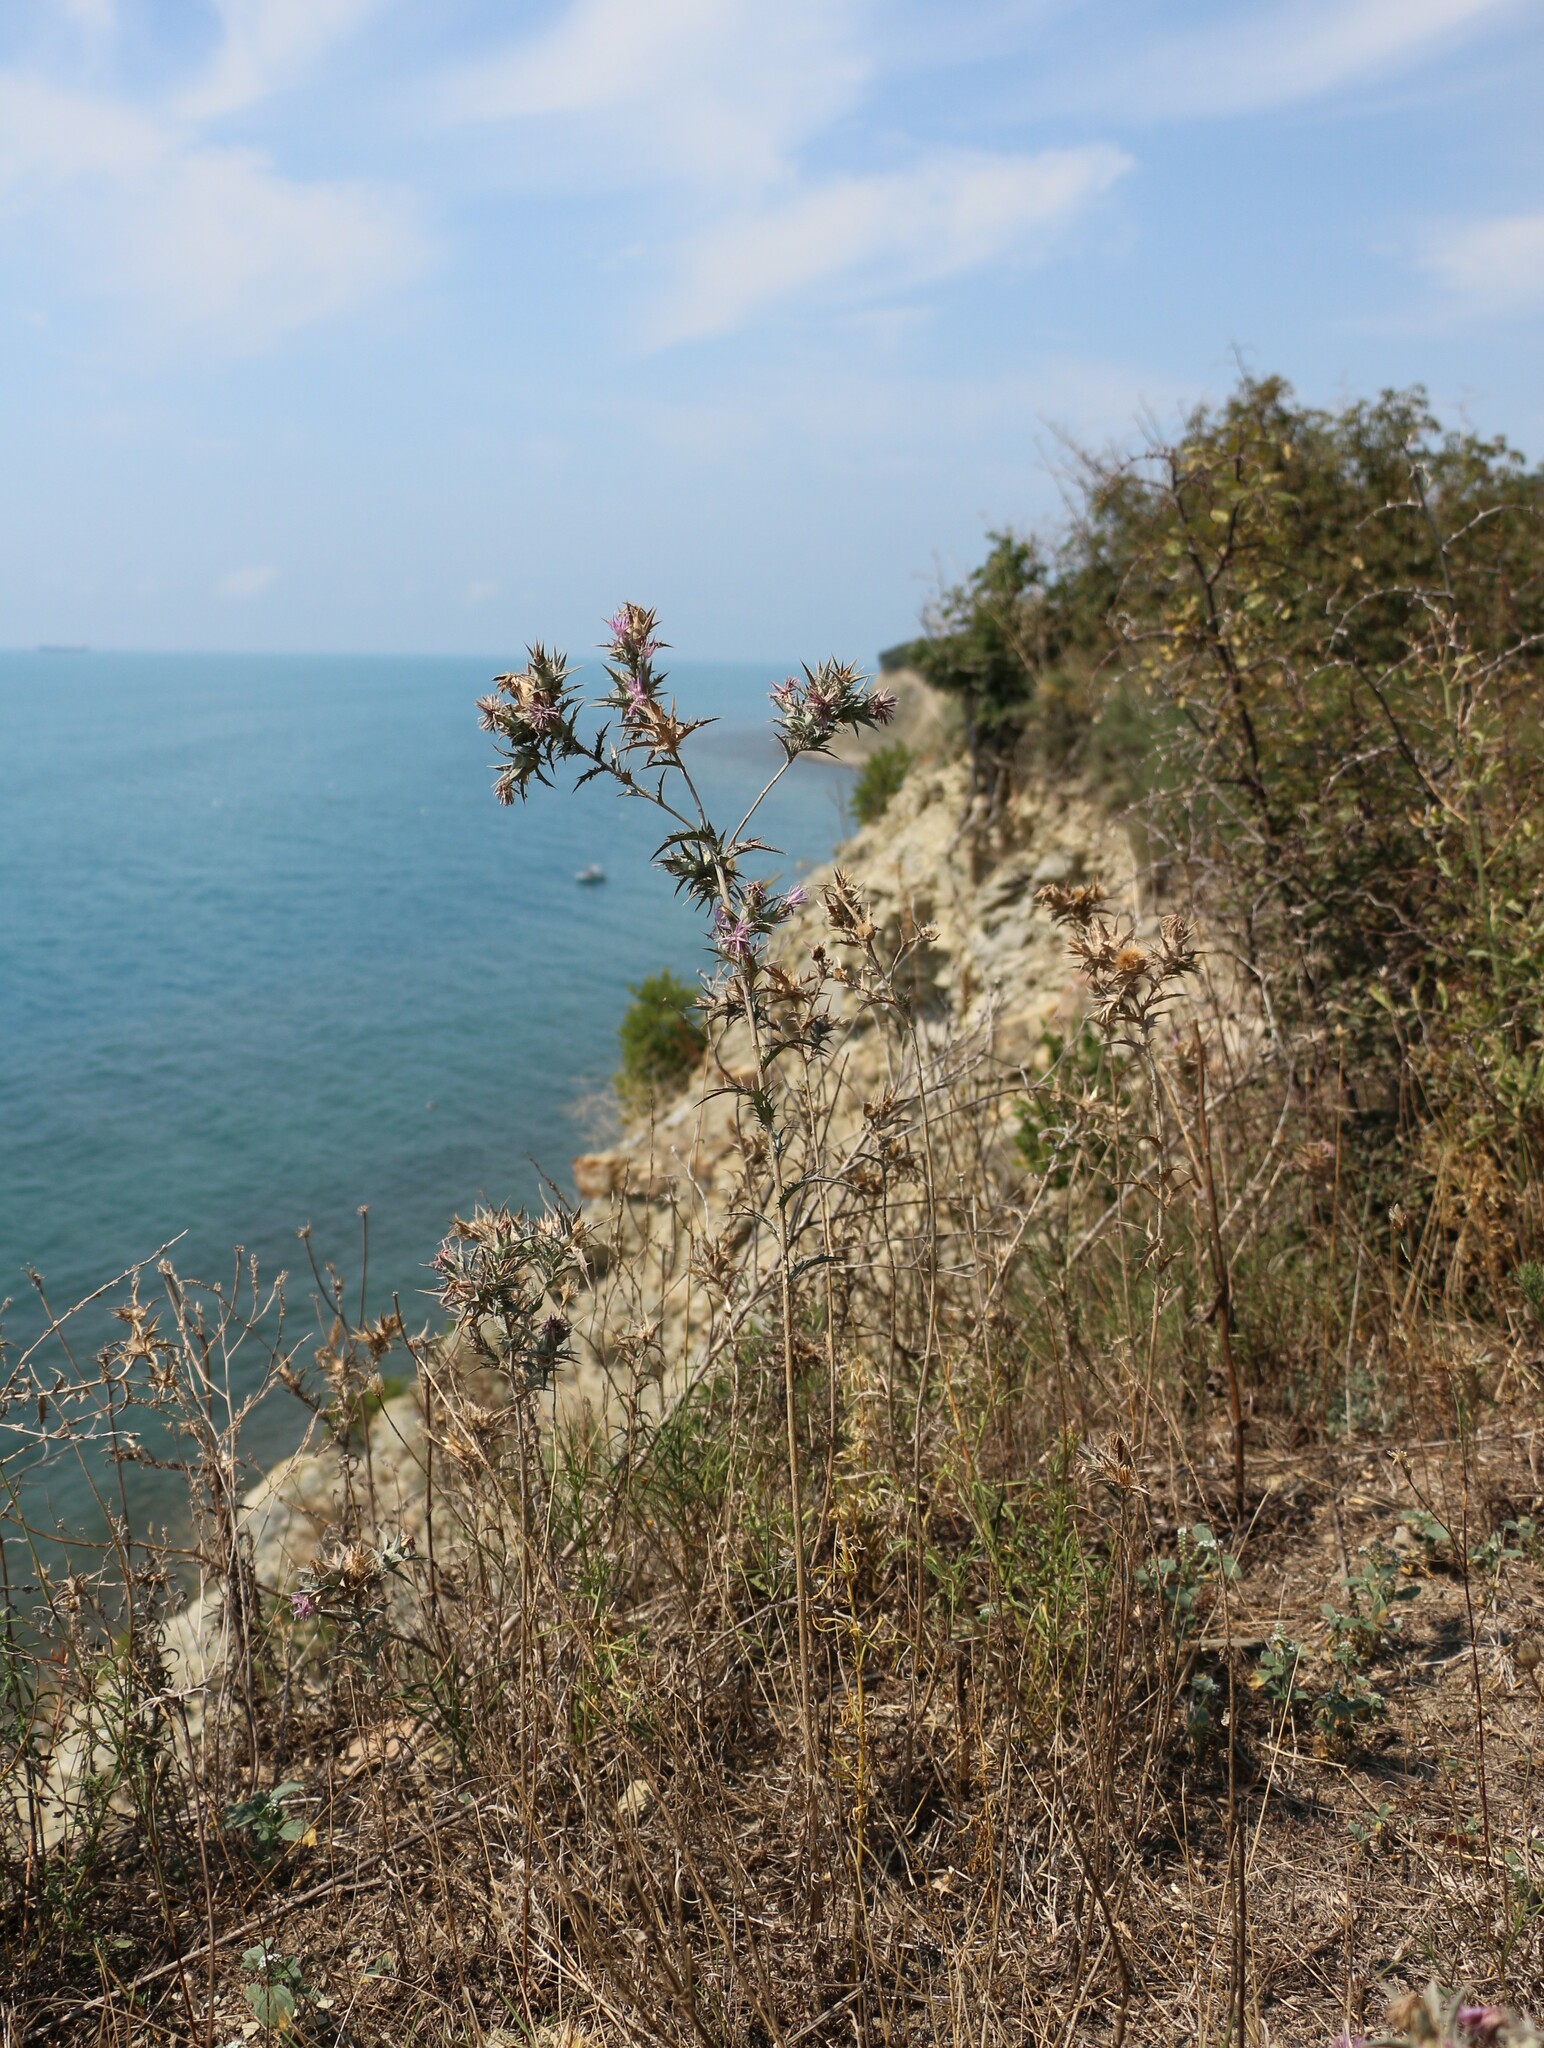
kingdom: Plantae
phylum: Tracheophyta
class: Magnoliopsida
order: Asterales
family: Asteraceae
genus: Carthamus
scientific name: Carthamus glaucus
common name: Mediterranean thistle
